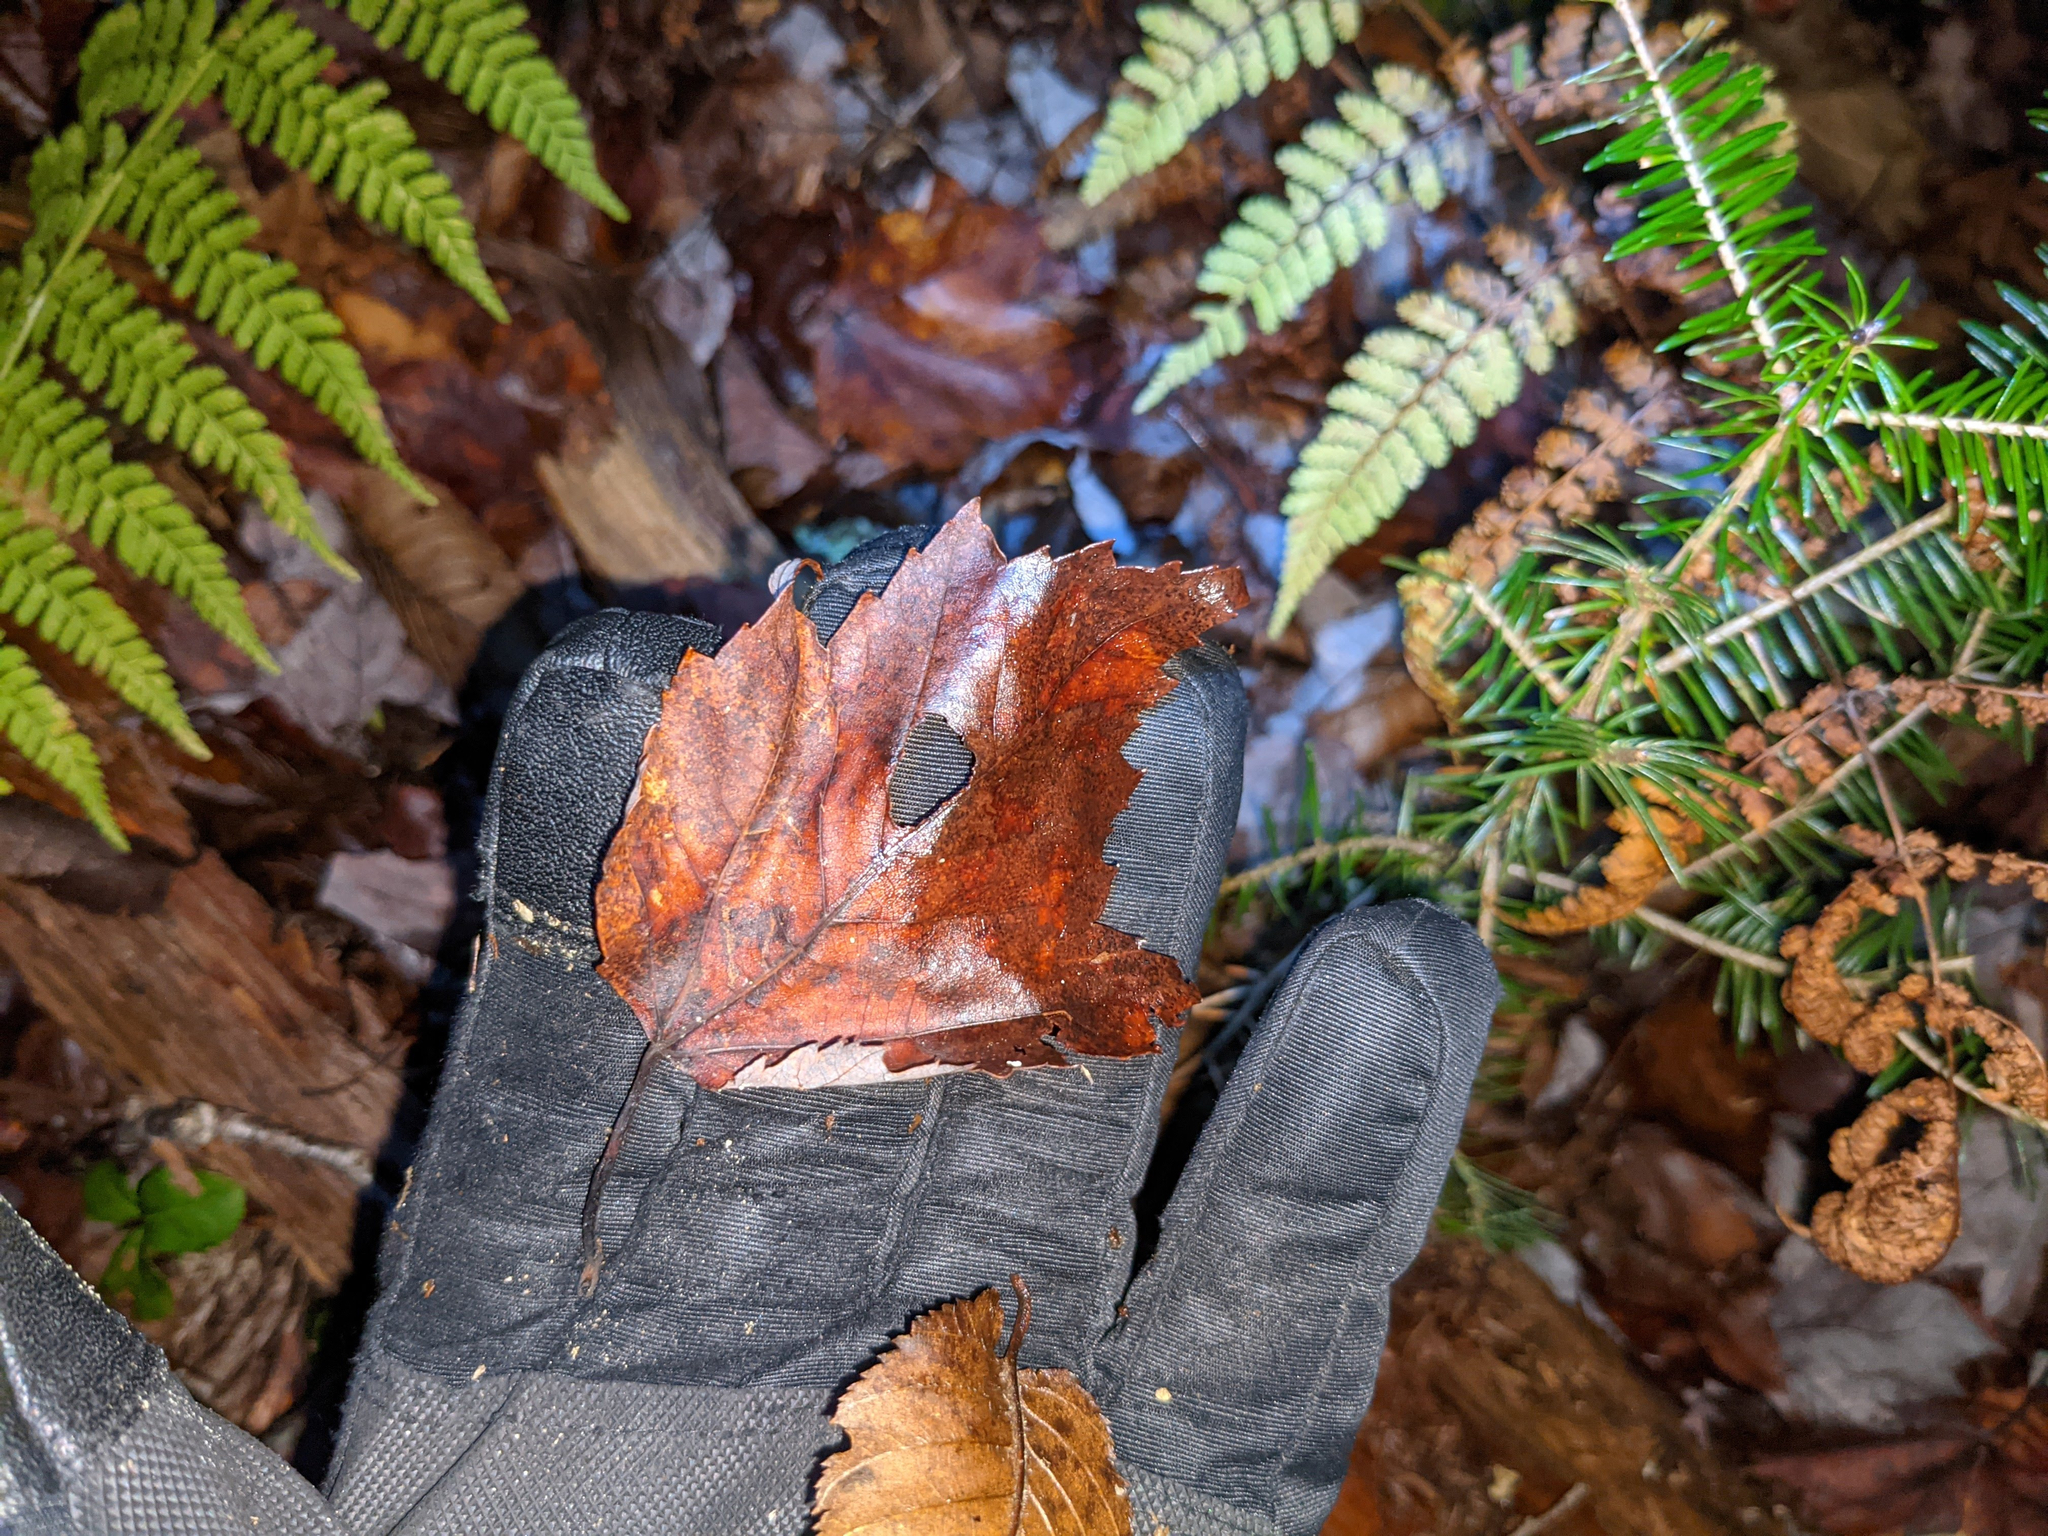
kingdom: Plantae
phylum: Tracheophyta
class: Magnoliopsida
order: Sapindales
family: Sapindaceae
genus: Acer
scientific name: Acer rubrum
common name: Red maple
